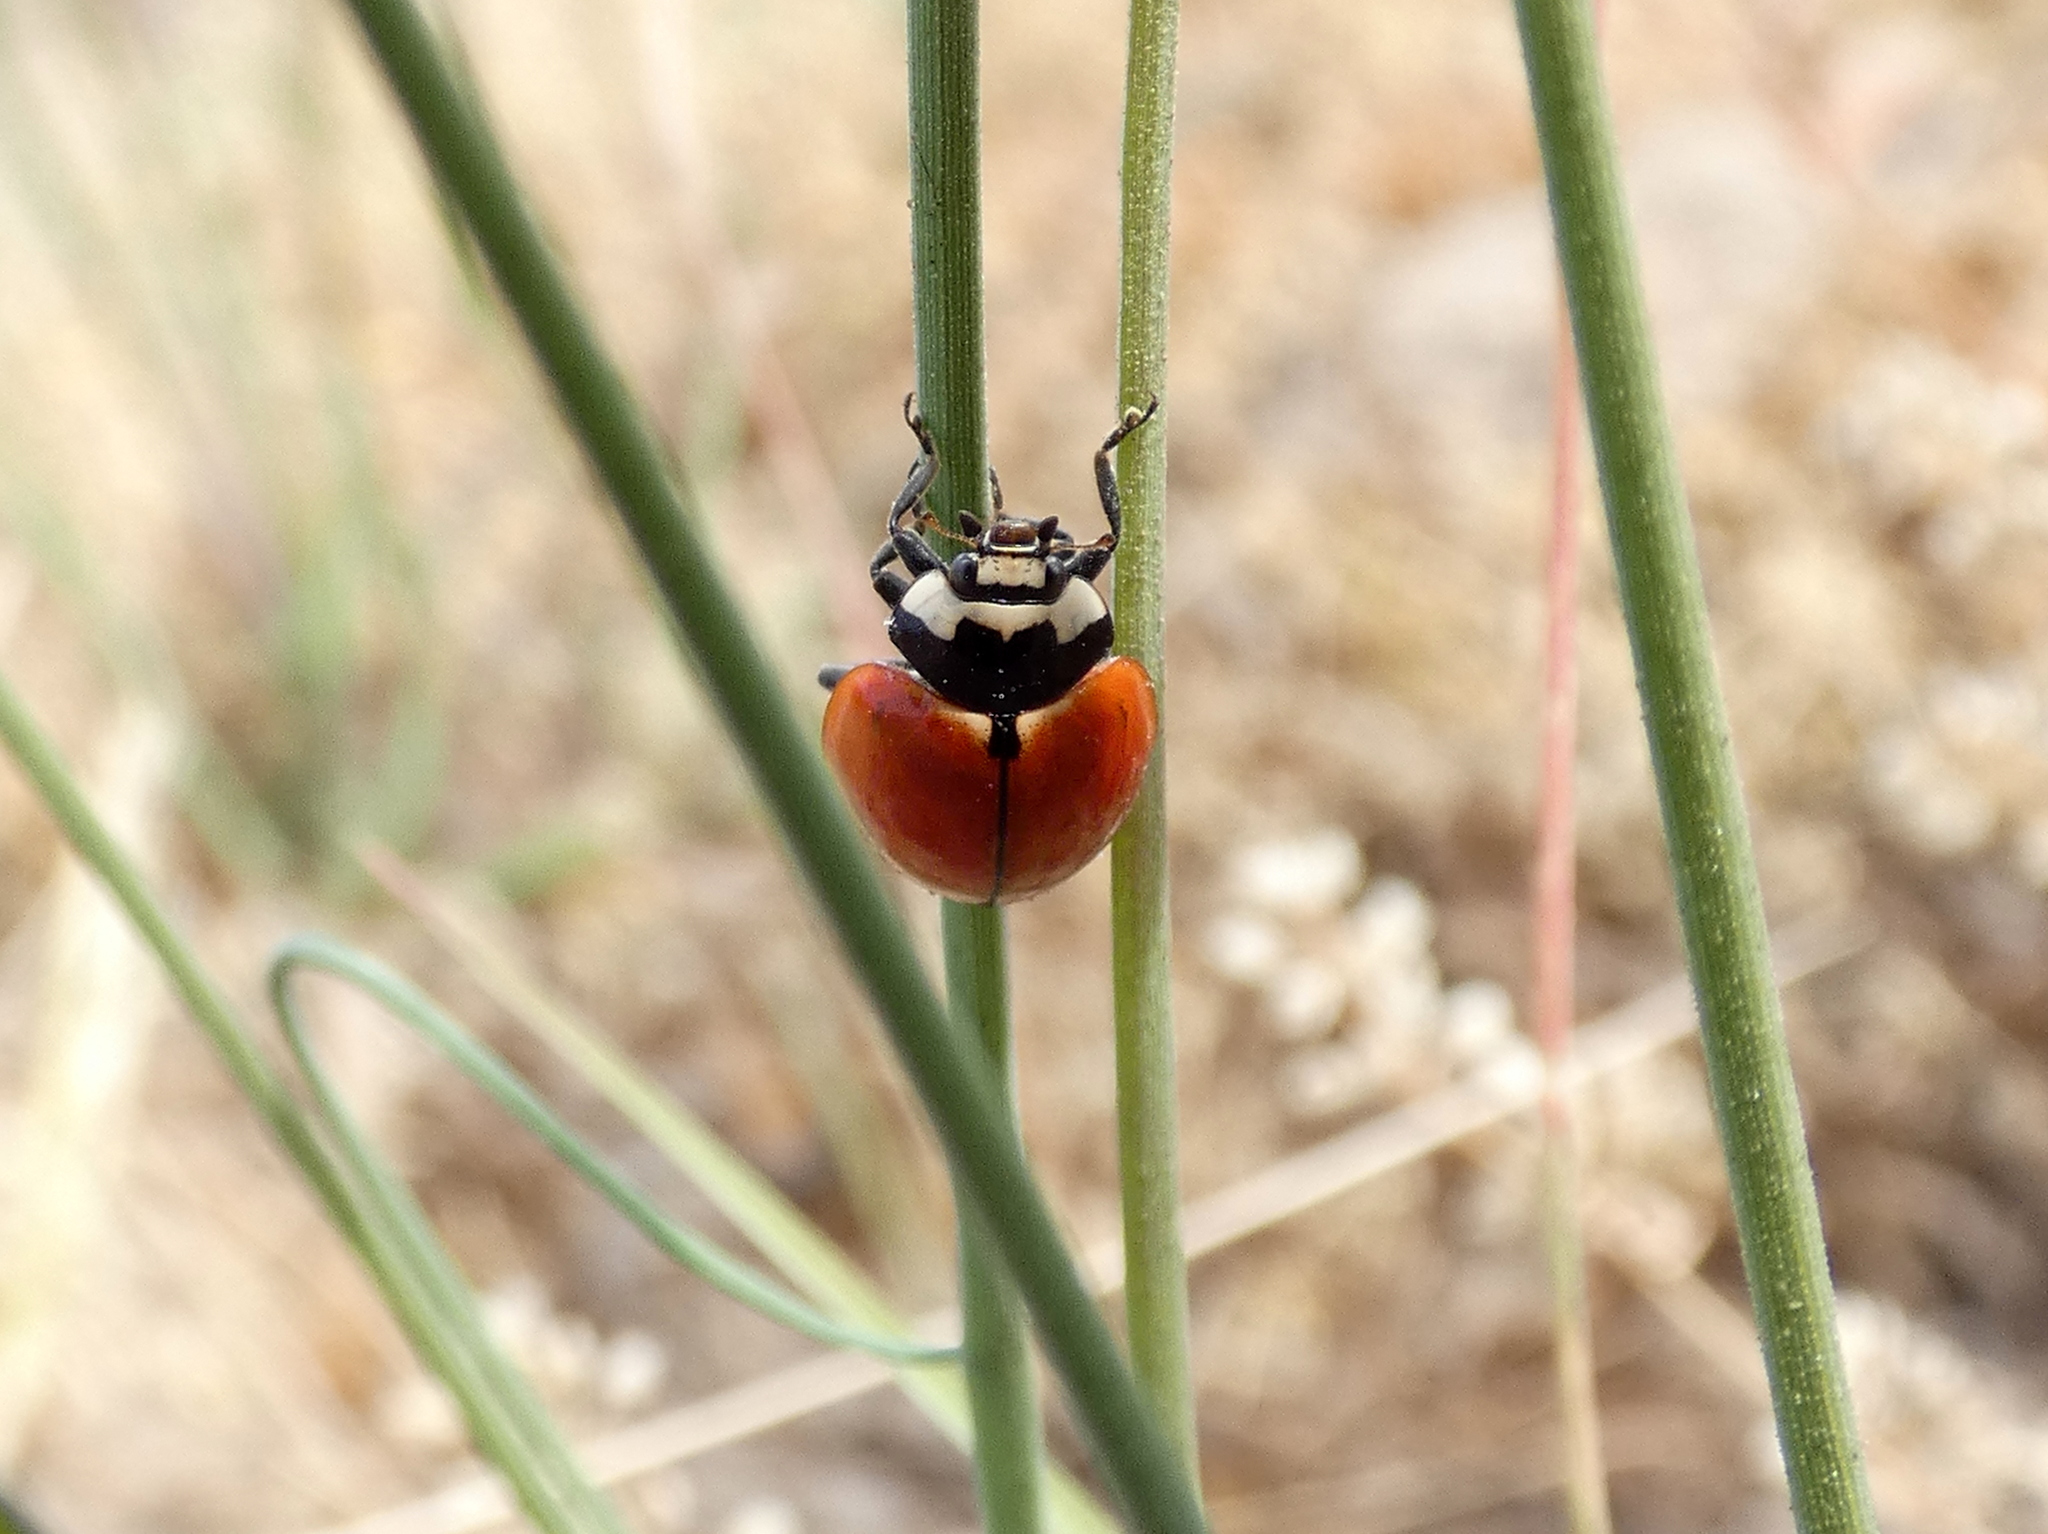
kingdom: Animalia
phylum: Arthropoda
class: Insecta
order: Coleoptera
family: Coccinellidae
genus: Coccinella
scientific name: Coccinella novemnotata
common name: Nine-spotted lady beetle
